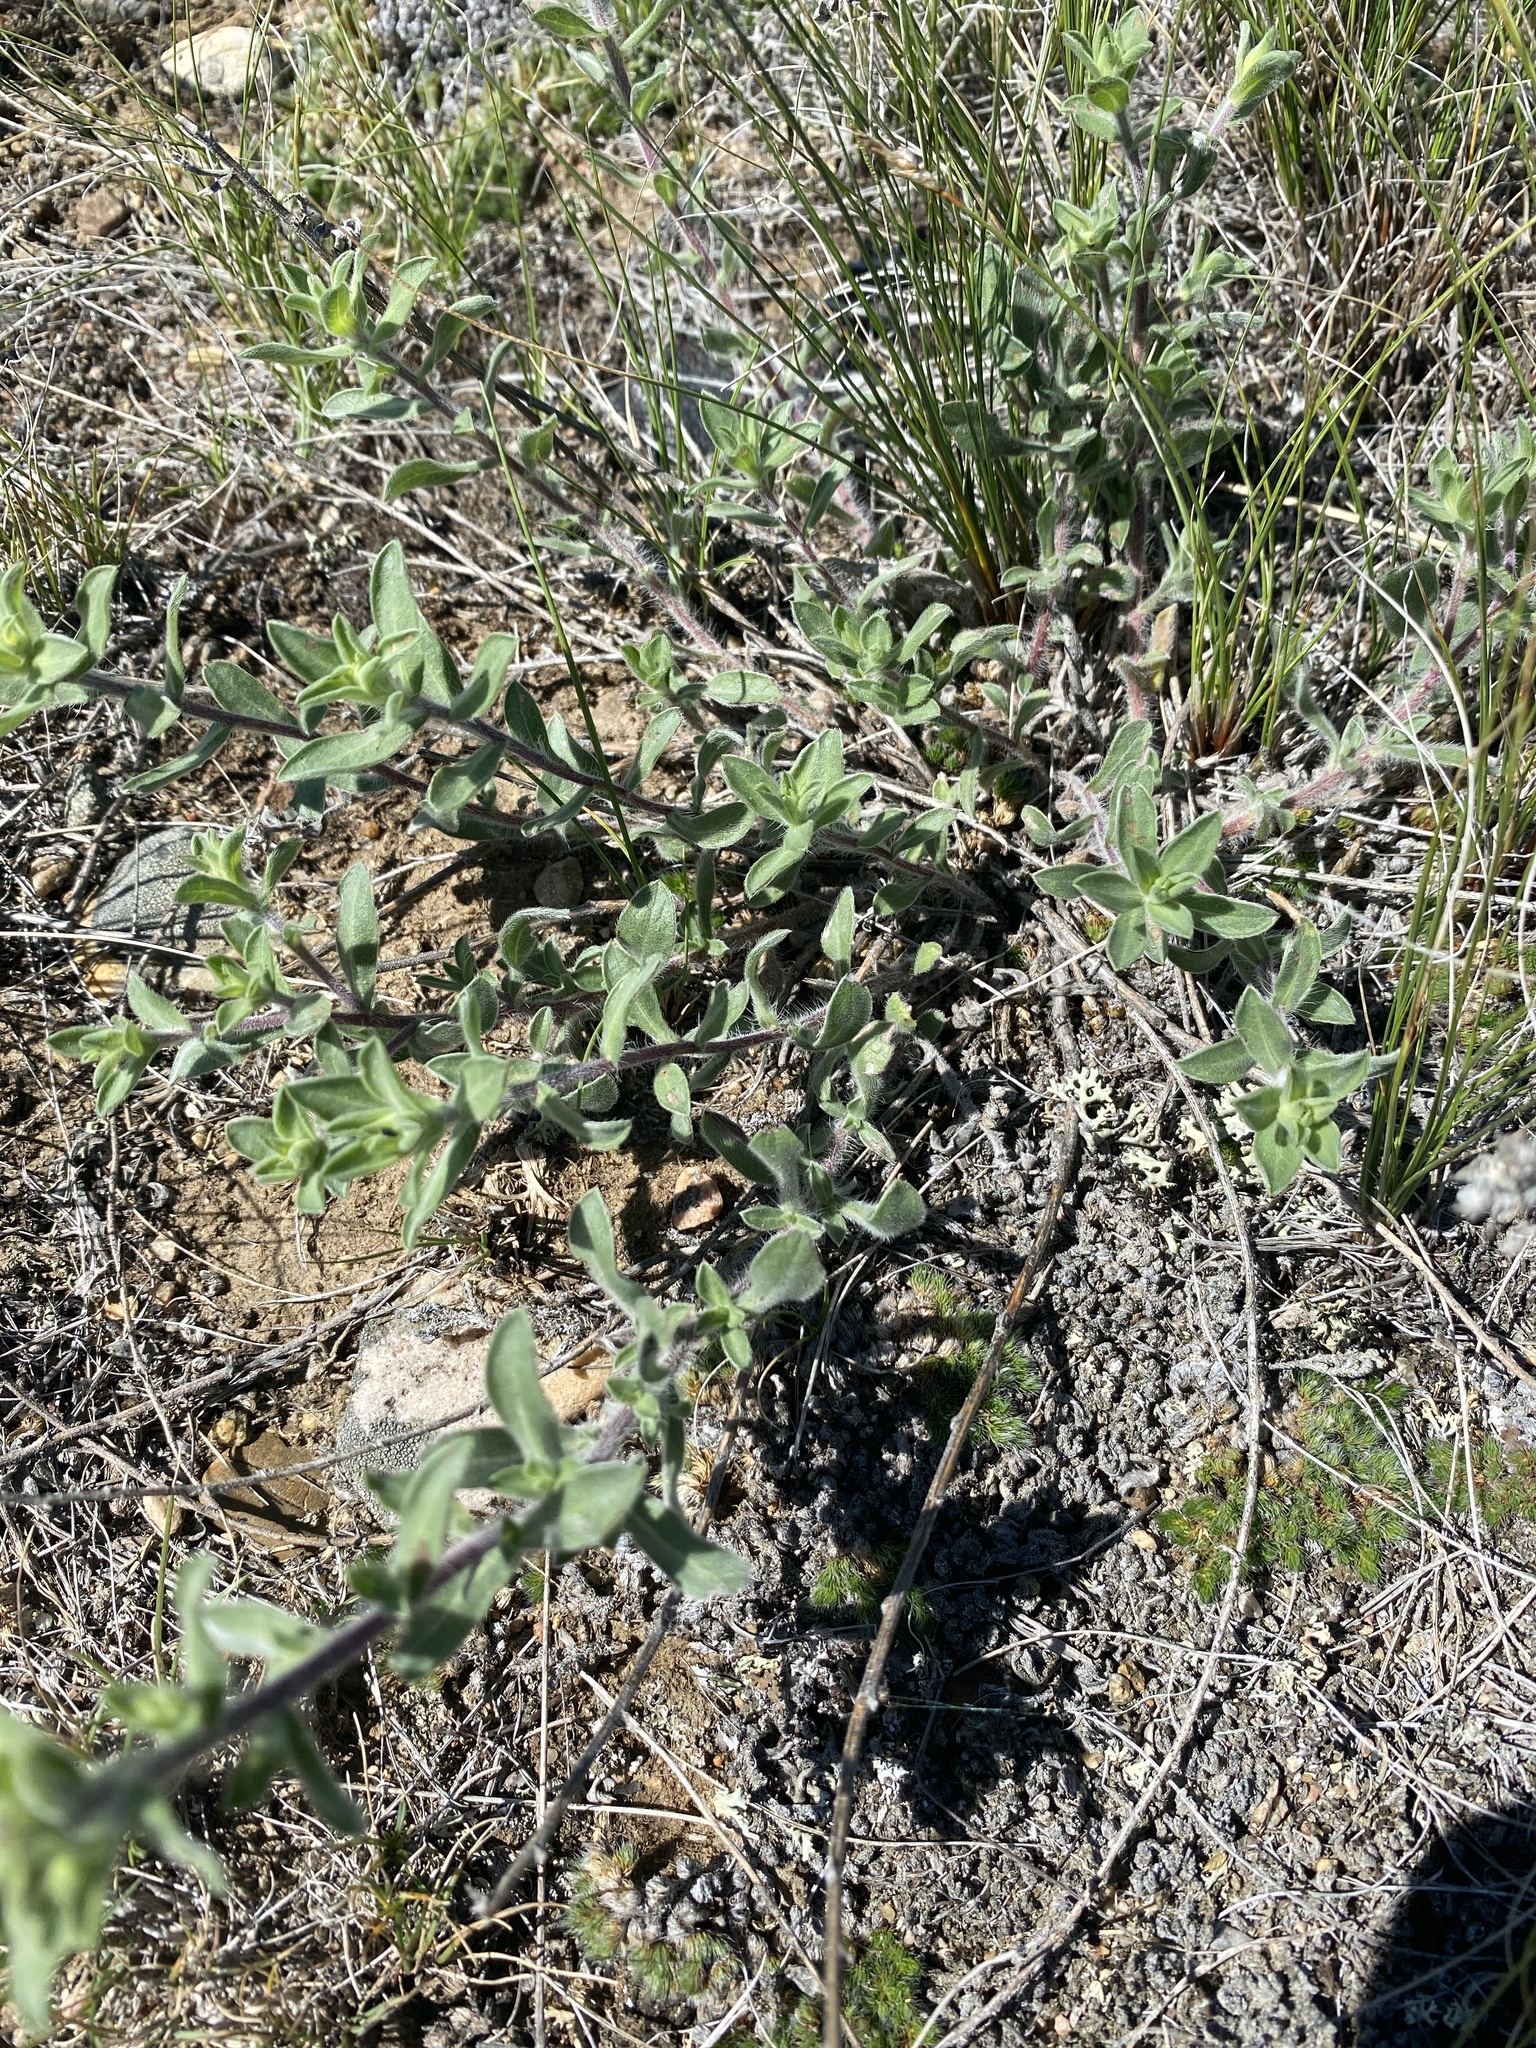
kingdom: Plantae
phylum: Tracheophyta
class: Magnoliopsida
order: Asterales
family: Asteraceae
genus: Heterotheca
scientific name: Heterotheca villosa
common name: Hairy false goldenaster
